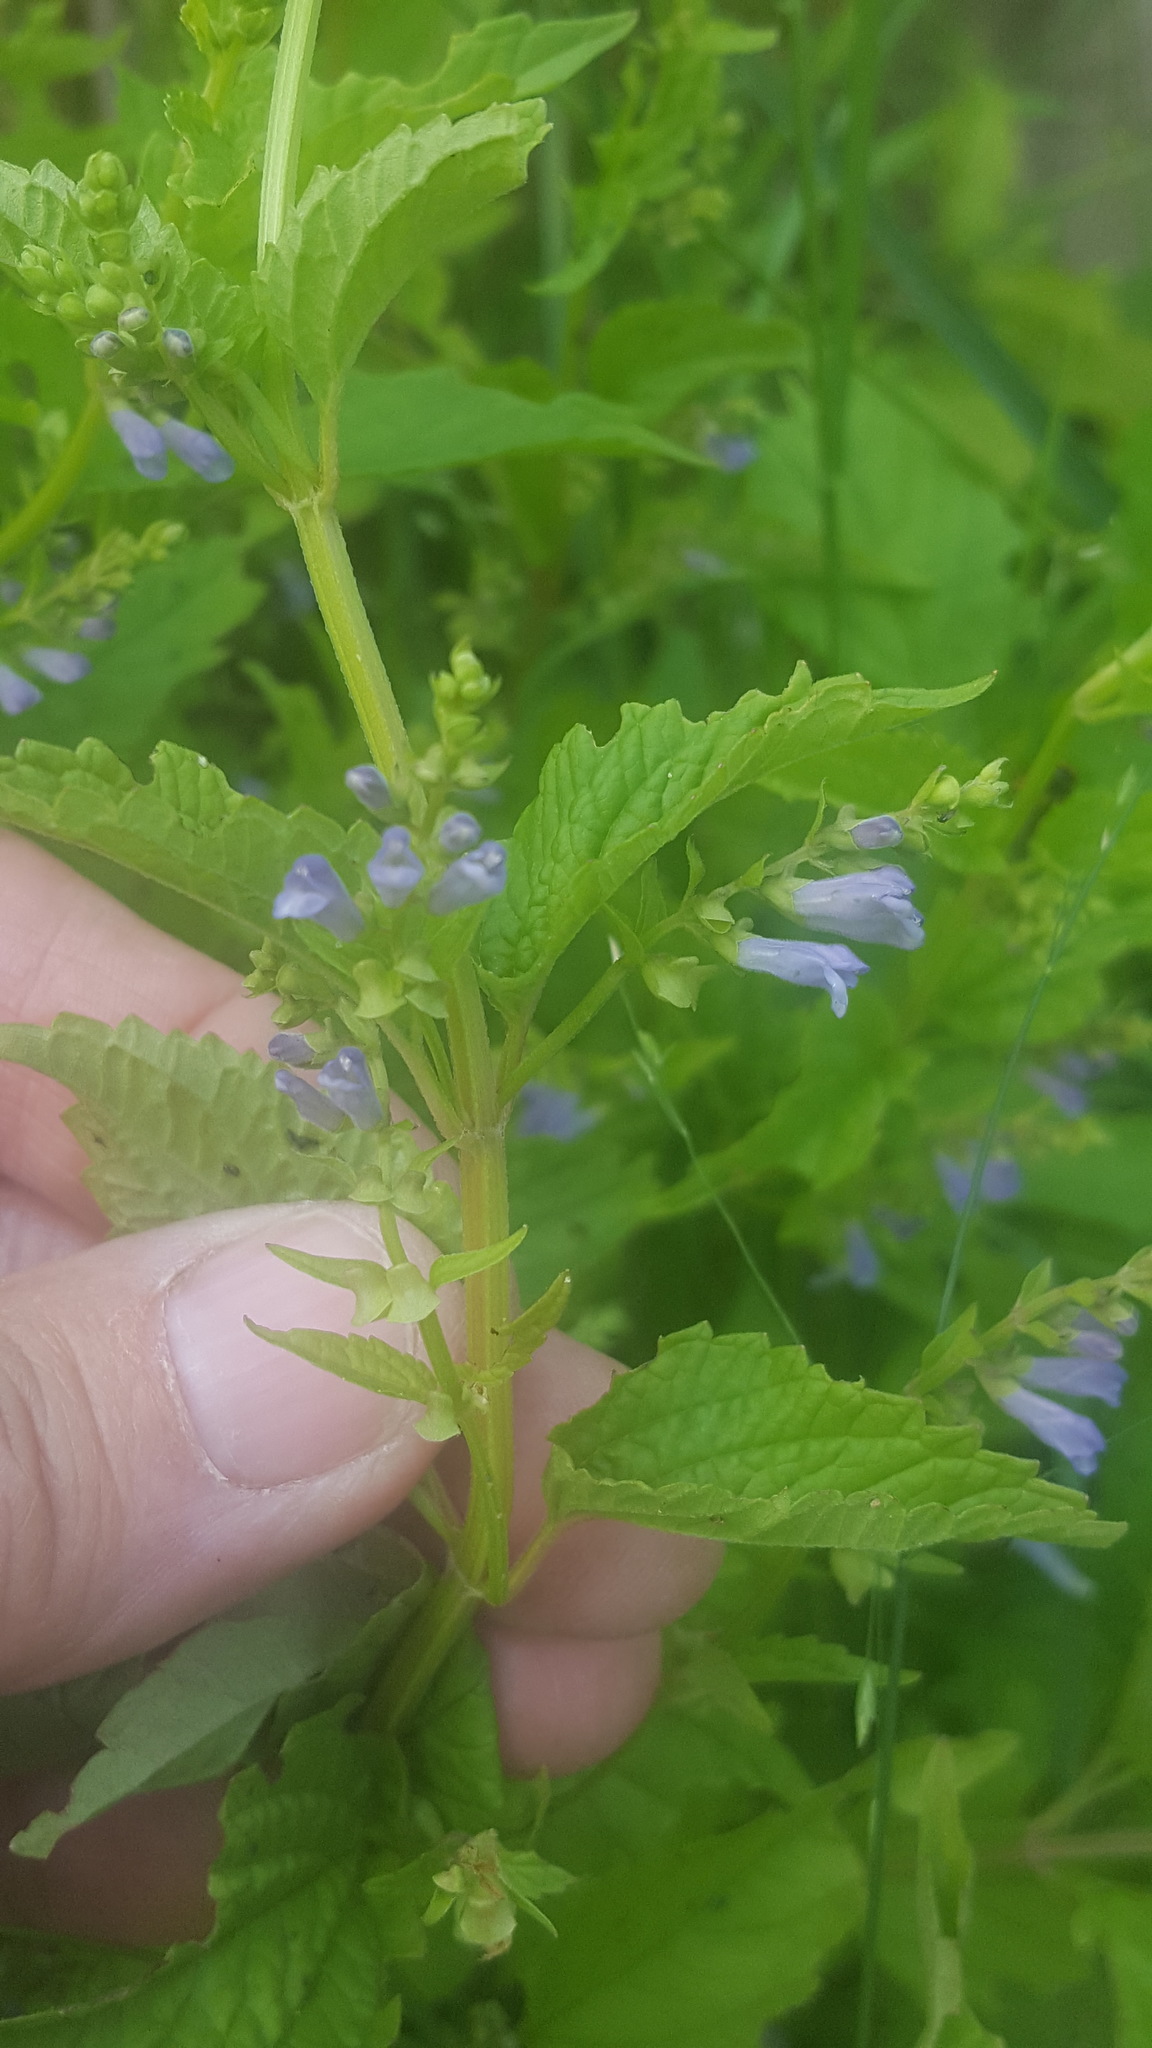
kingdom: Plantae
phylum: Tracheophyta
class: Magnoliopsida
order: Lamiales
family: Lamiaceae
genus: Scutellaria
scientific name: Scutellaria lateriflora
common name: Blue skullcap
